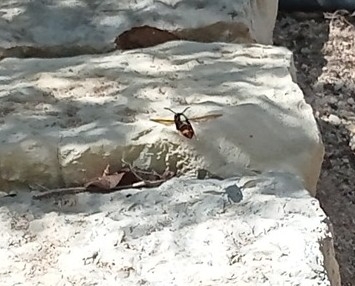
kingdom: Animalia
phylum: Arthropoda
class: Insecta
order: Hymenoptera
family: Vespidae
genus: Vespa
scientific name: Vespa velutina
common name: Asian hornet
